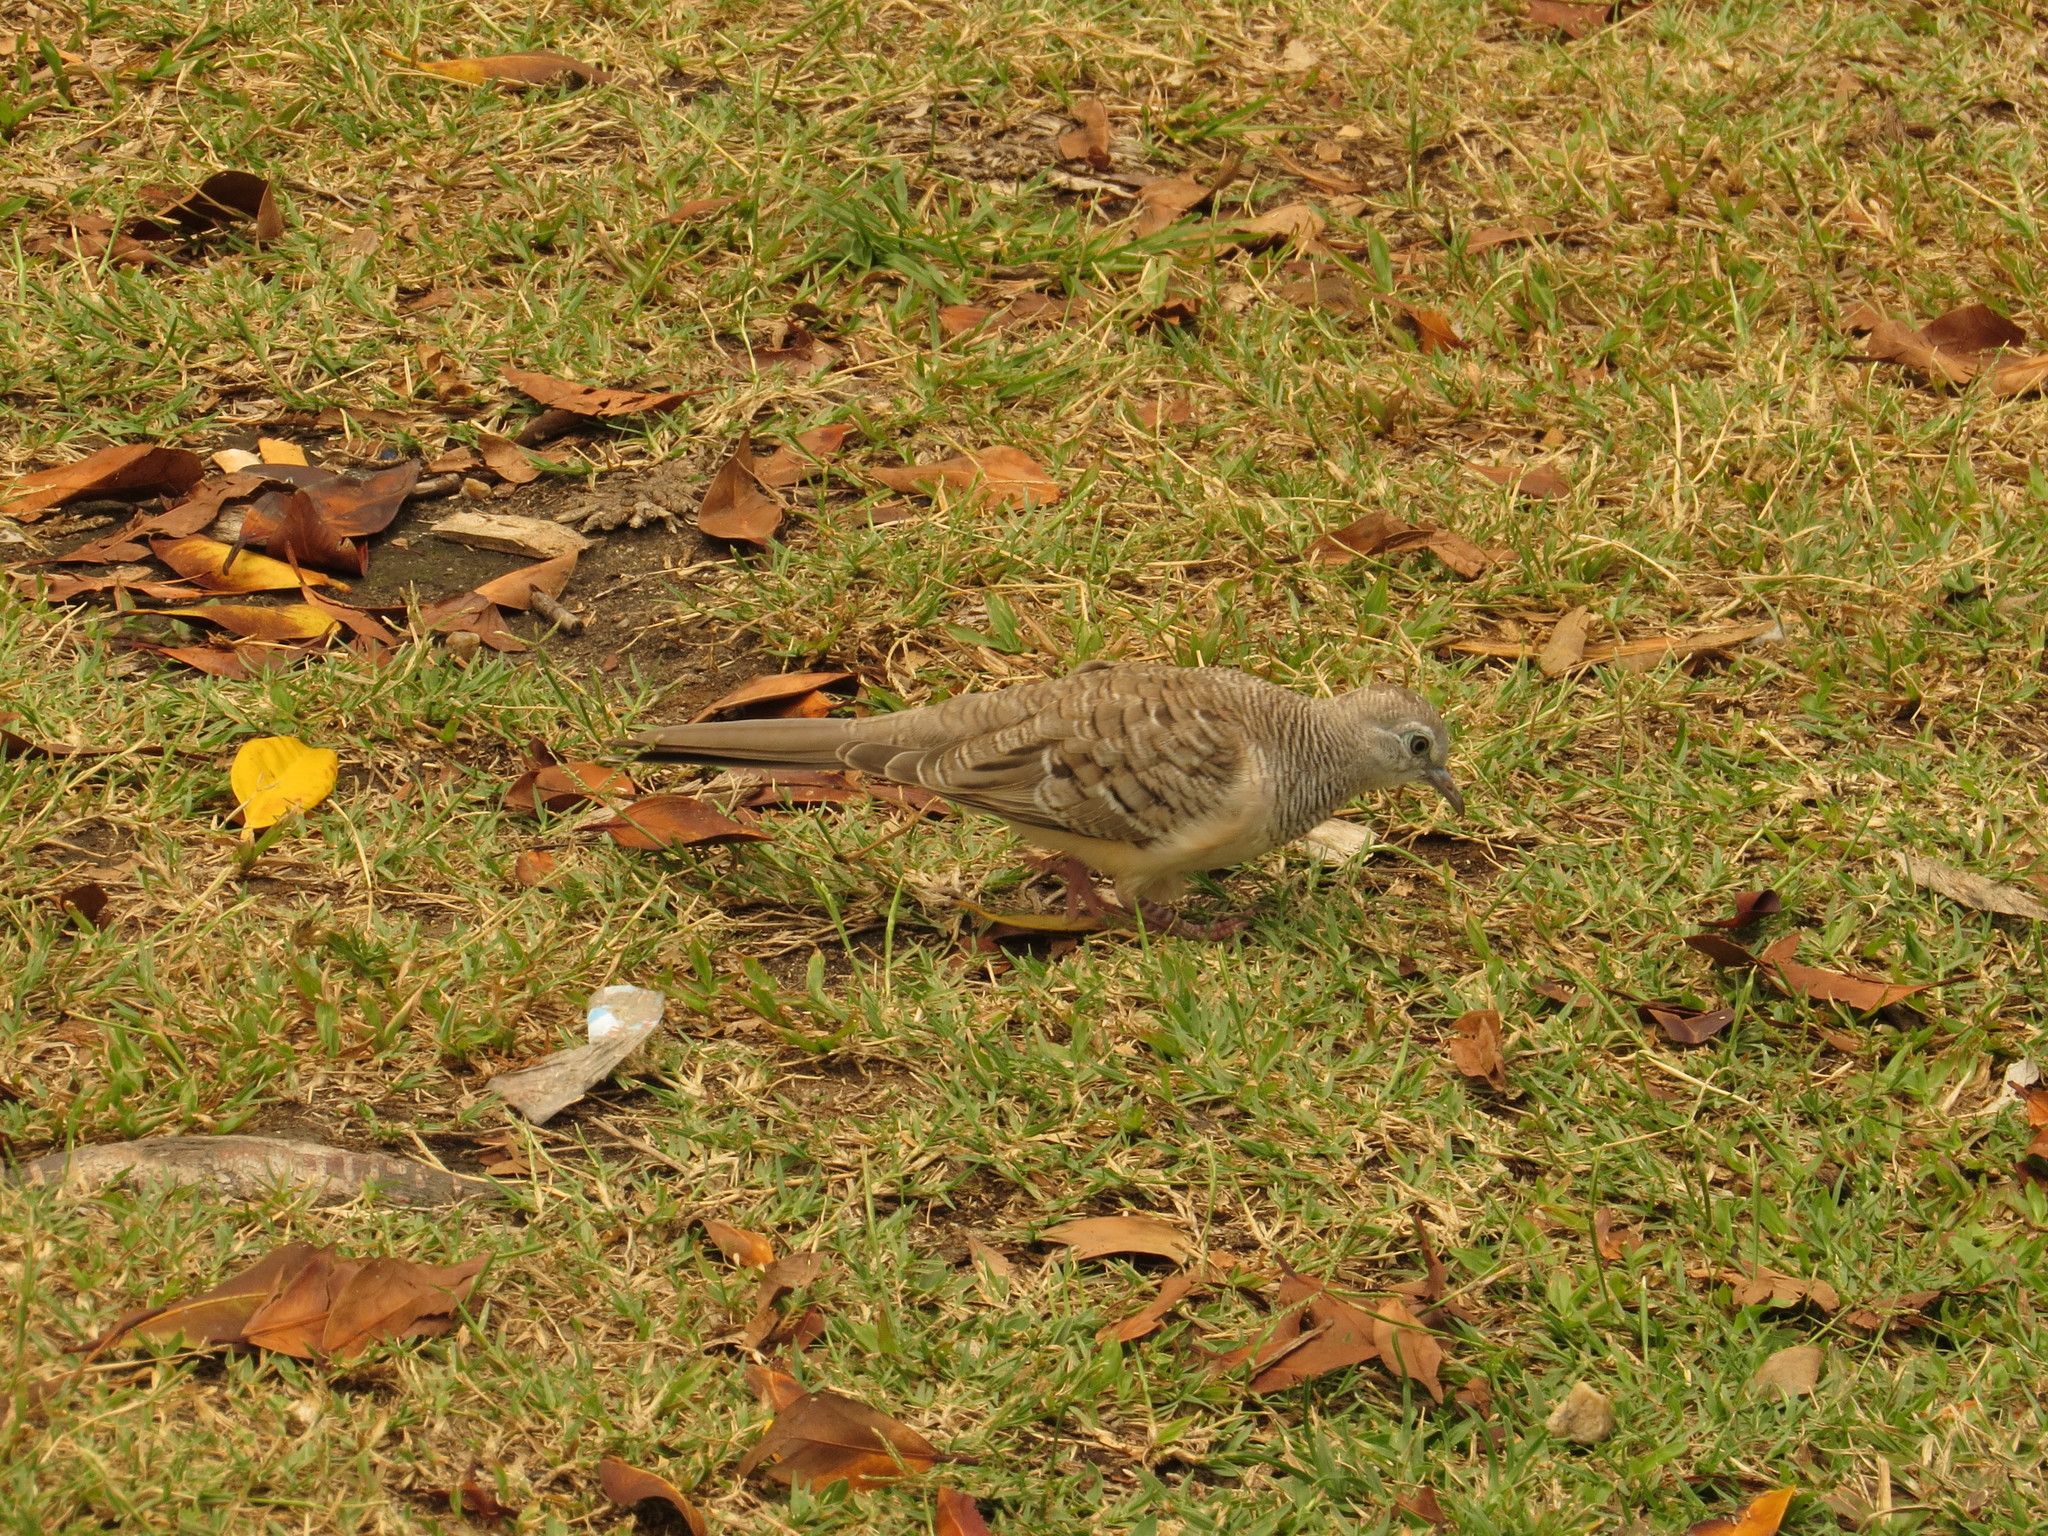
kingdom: Animalia
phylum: Chordata
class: Aves
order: Columbiformes
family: Columbidae
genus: Geopelia
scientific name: Geopelia placida
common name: Peaceful dove
